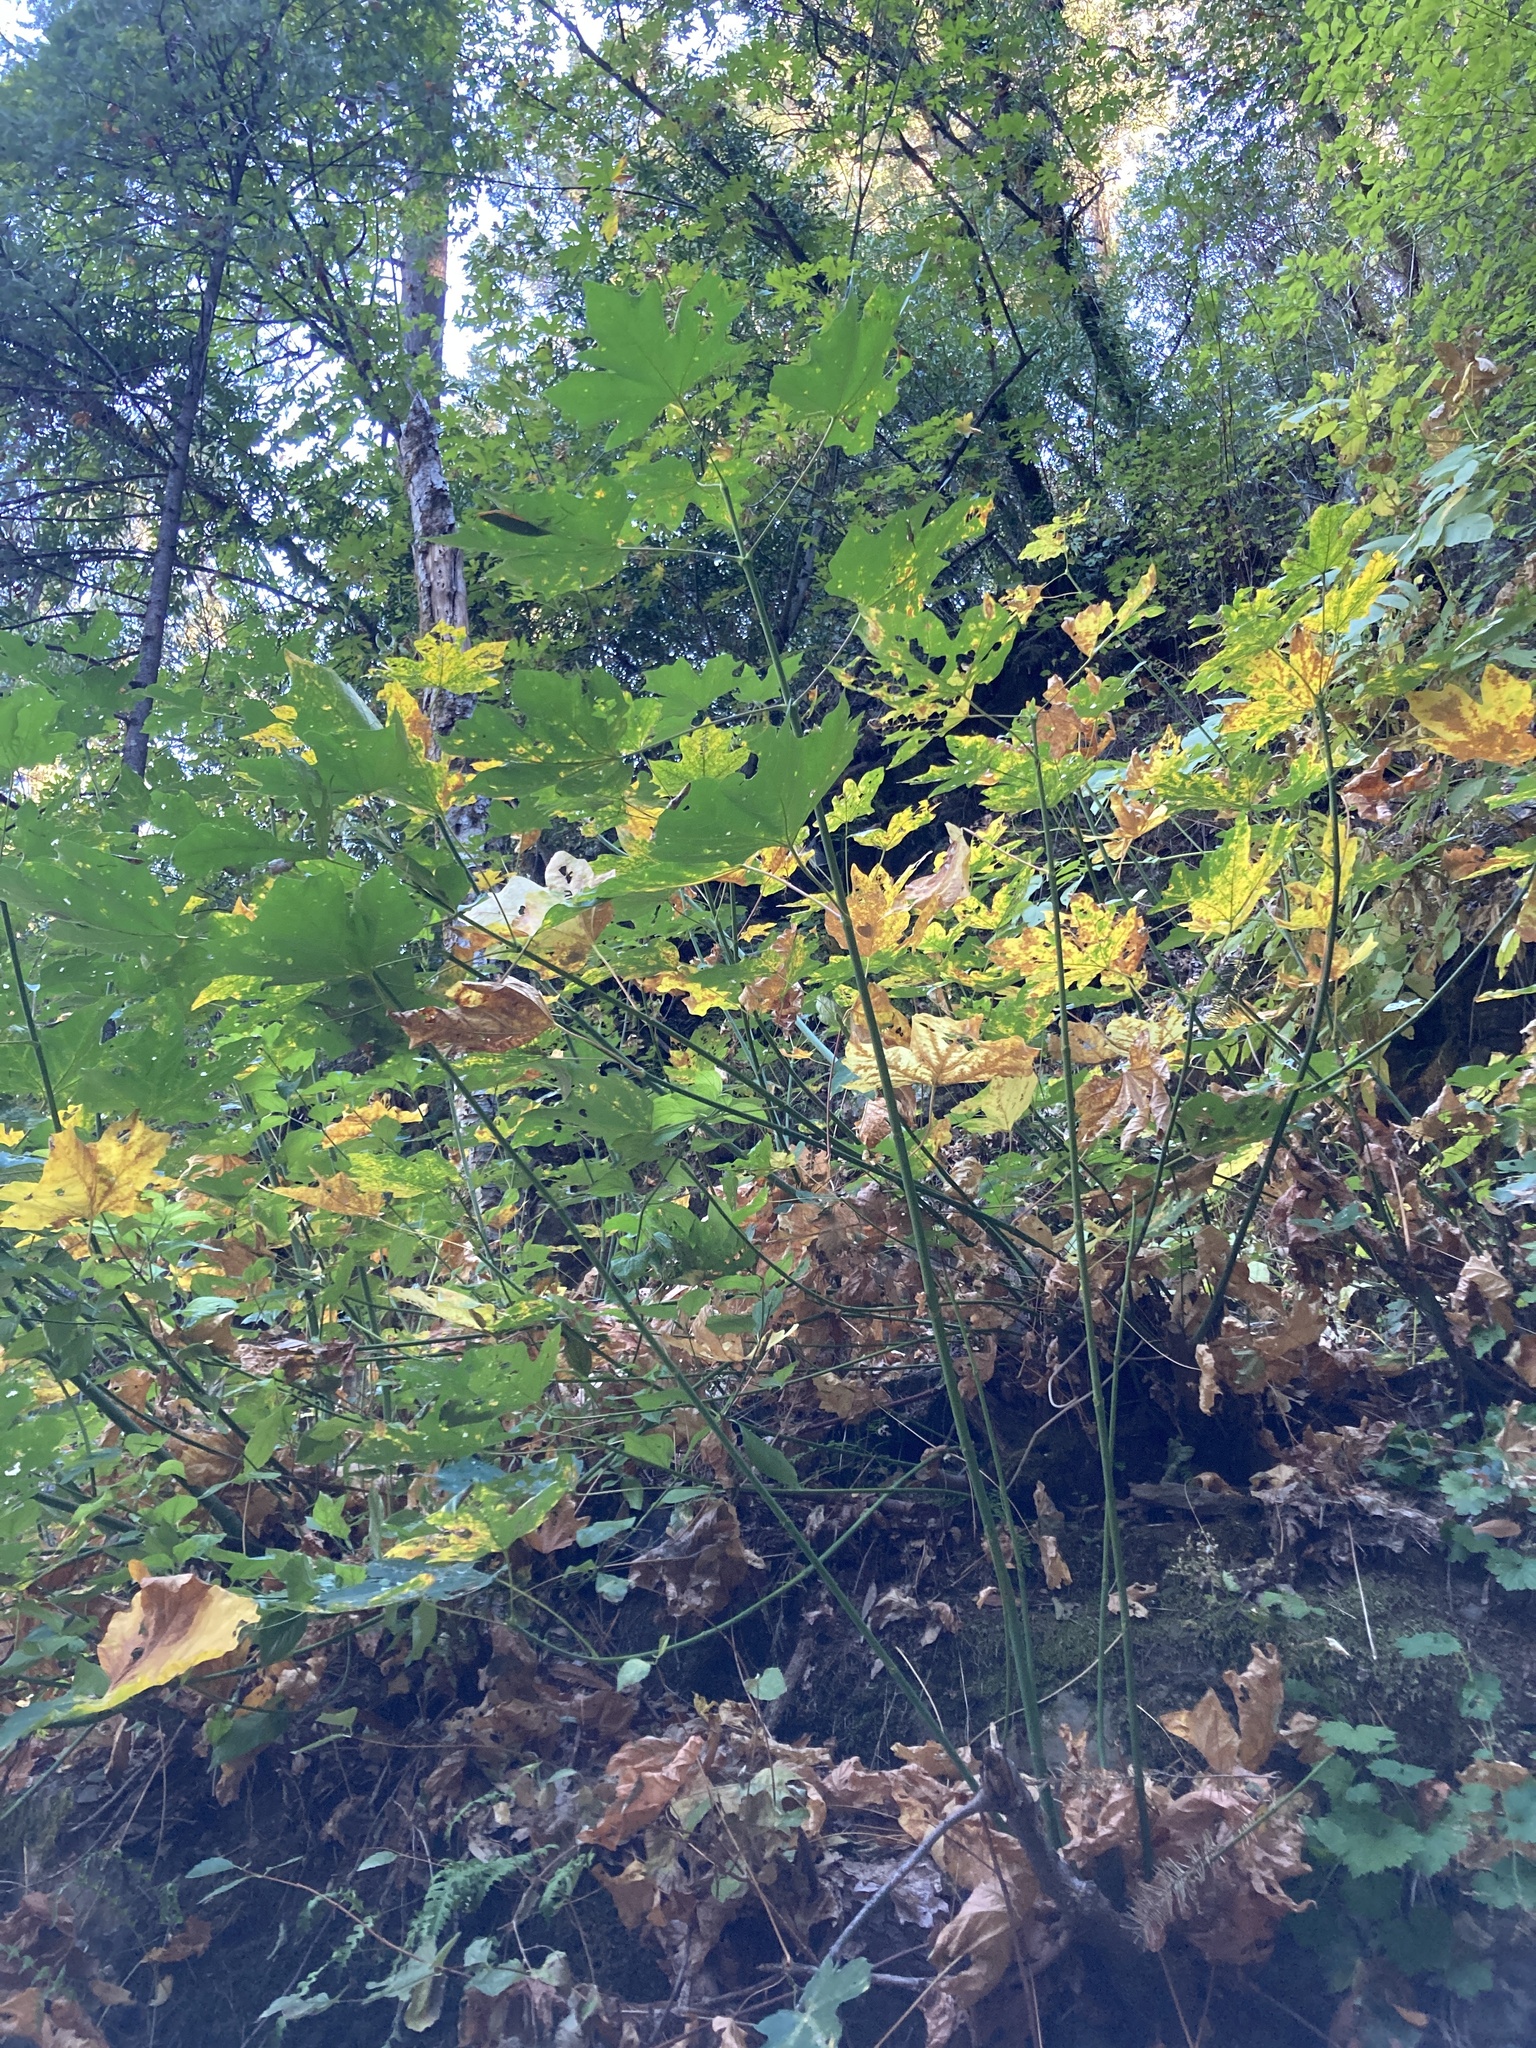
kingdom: Plantae
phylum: Tracheophyta
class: Magnoliopsida
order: Sapindales
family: Sapindaceae
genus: Acer
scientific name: Acer macrophyllum
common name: Oregon maple
